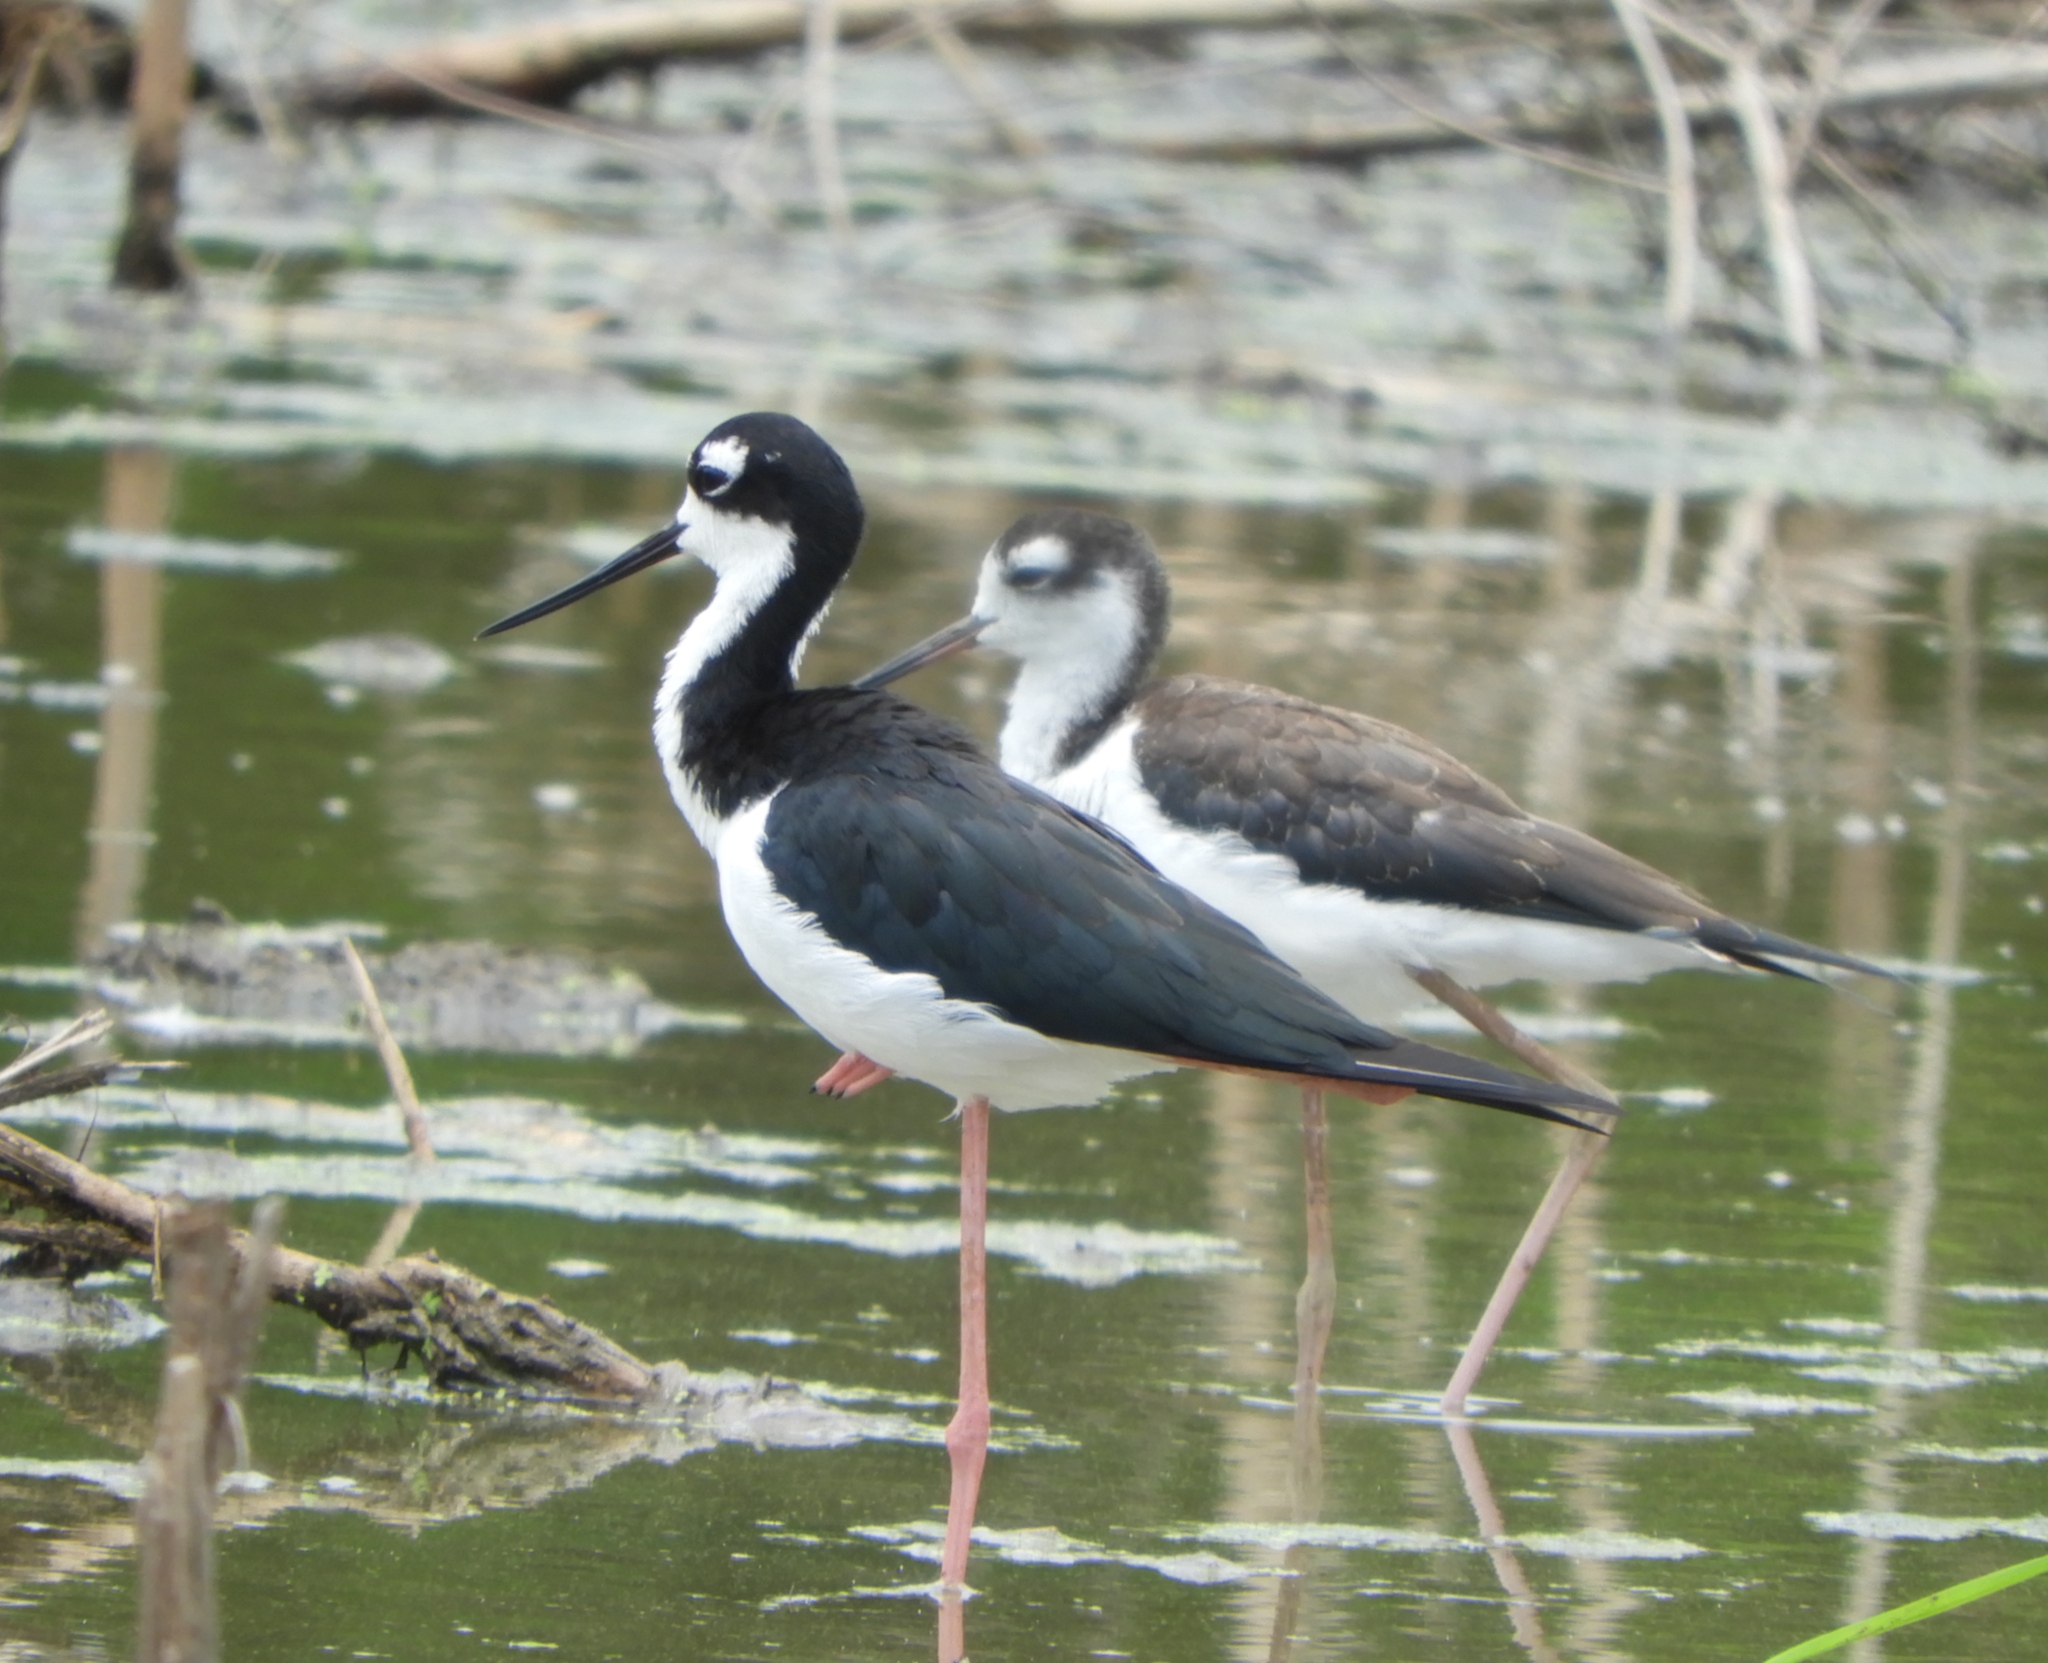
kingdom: Animalia
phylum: Chordata
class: Aves
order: Charadriiformes
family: Recurvirostridae
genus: Himantopus
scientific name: Himantopus mexicanus
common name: Black-necked stilt
